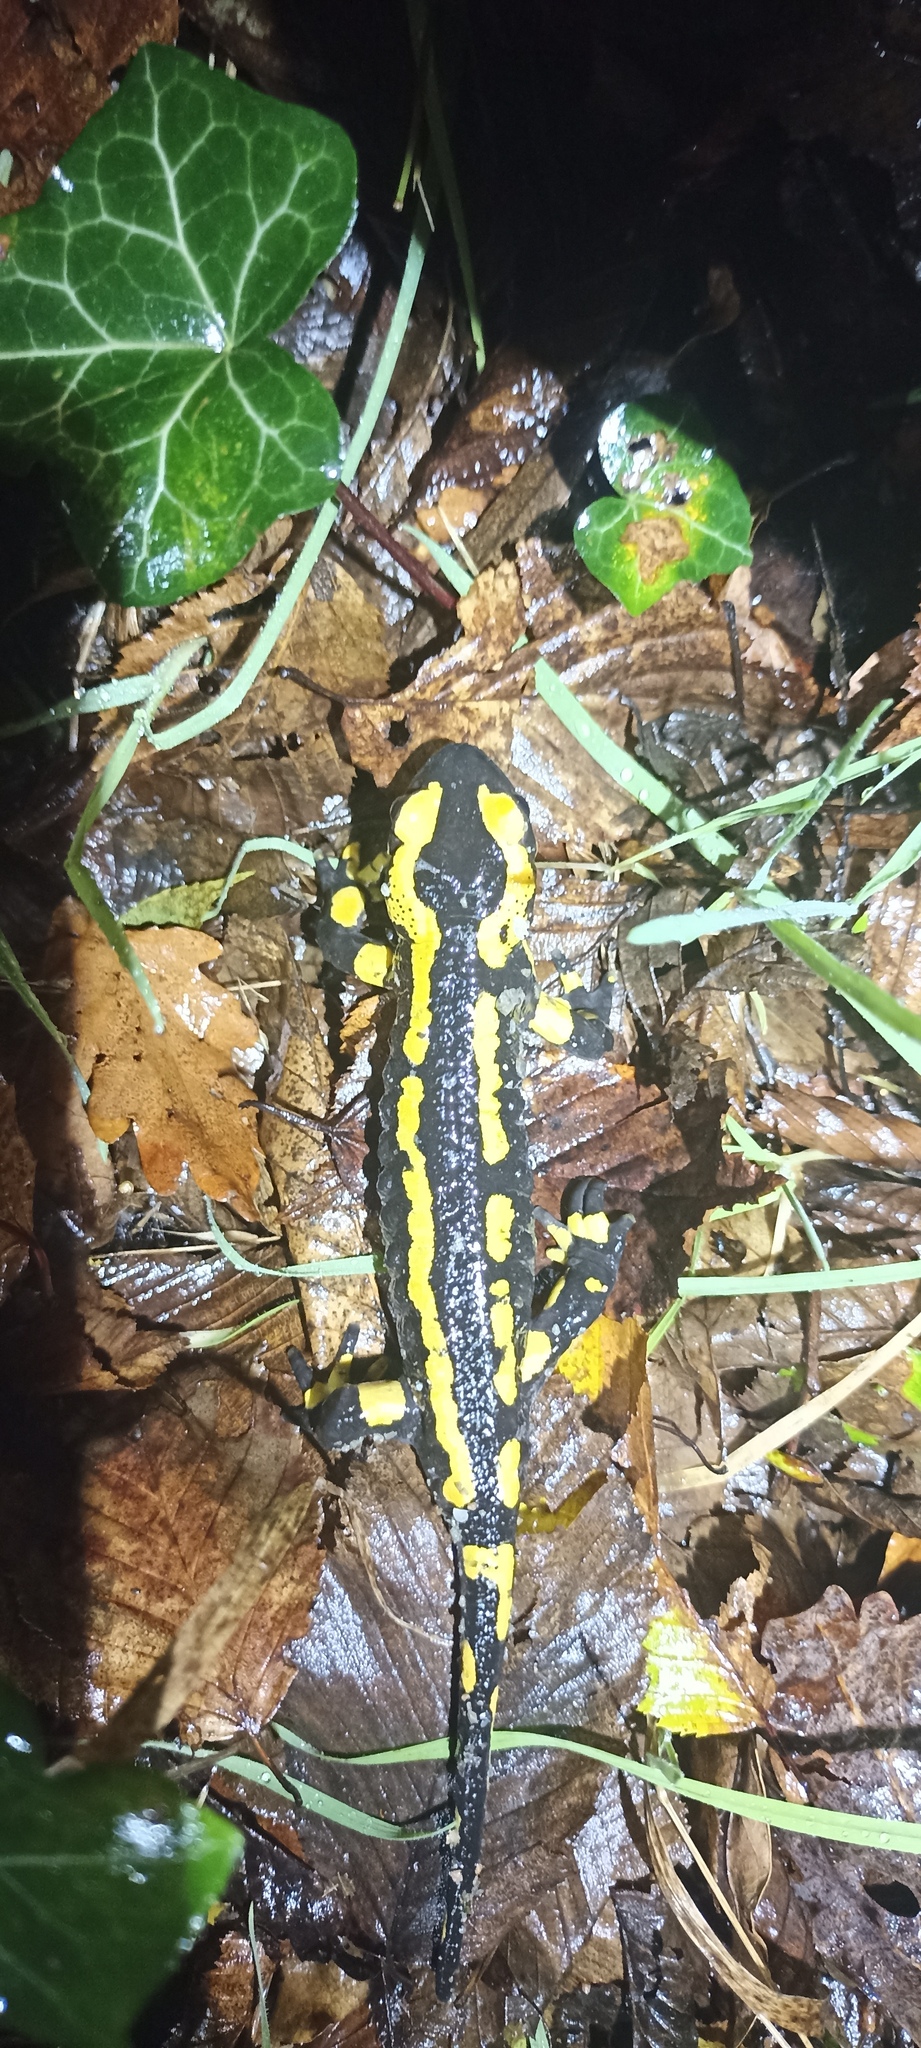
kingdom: Animalia
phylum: Chordata
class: Amphibia
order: Caudata
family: Salamandridae
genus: Salamandra
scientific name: Salamandra salamandra
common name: Fire salamander
